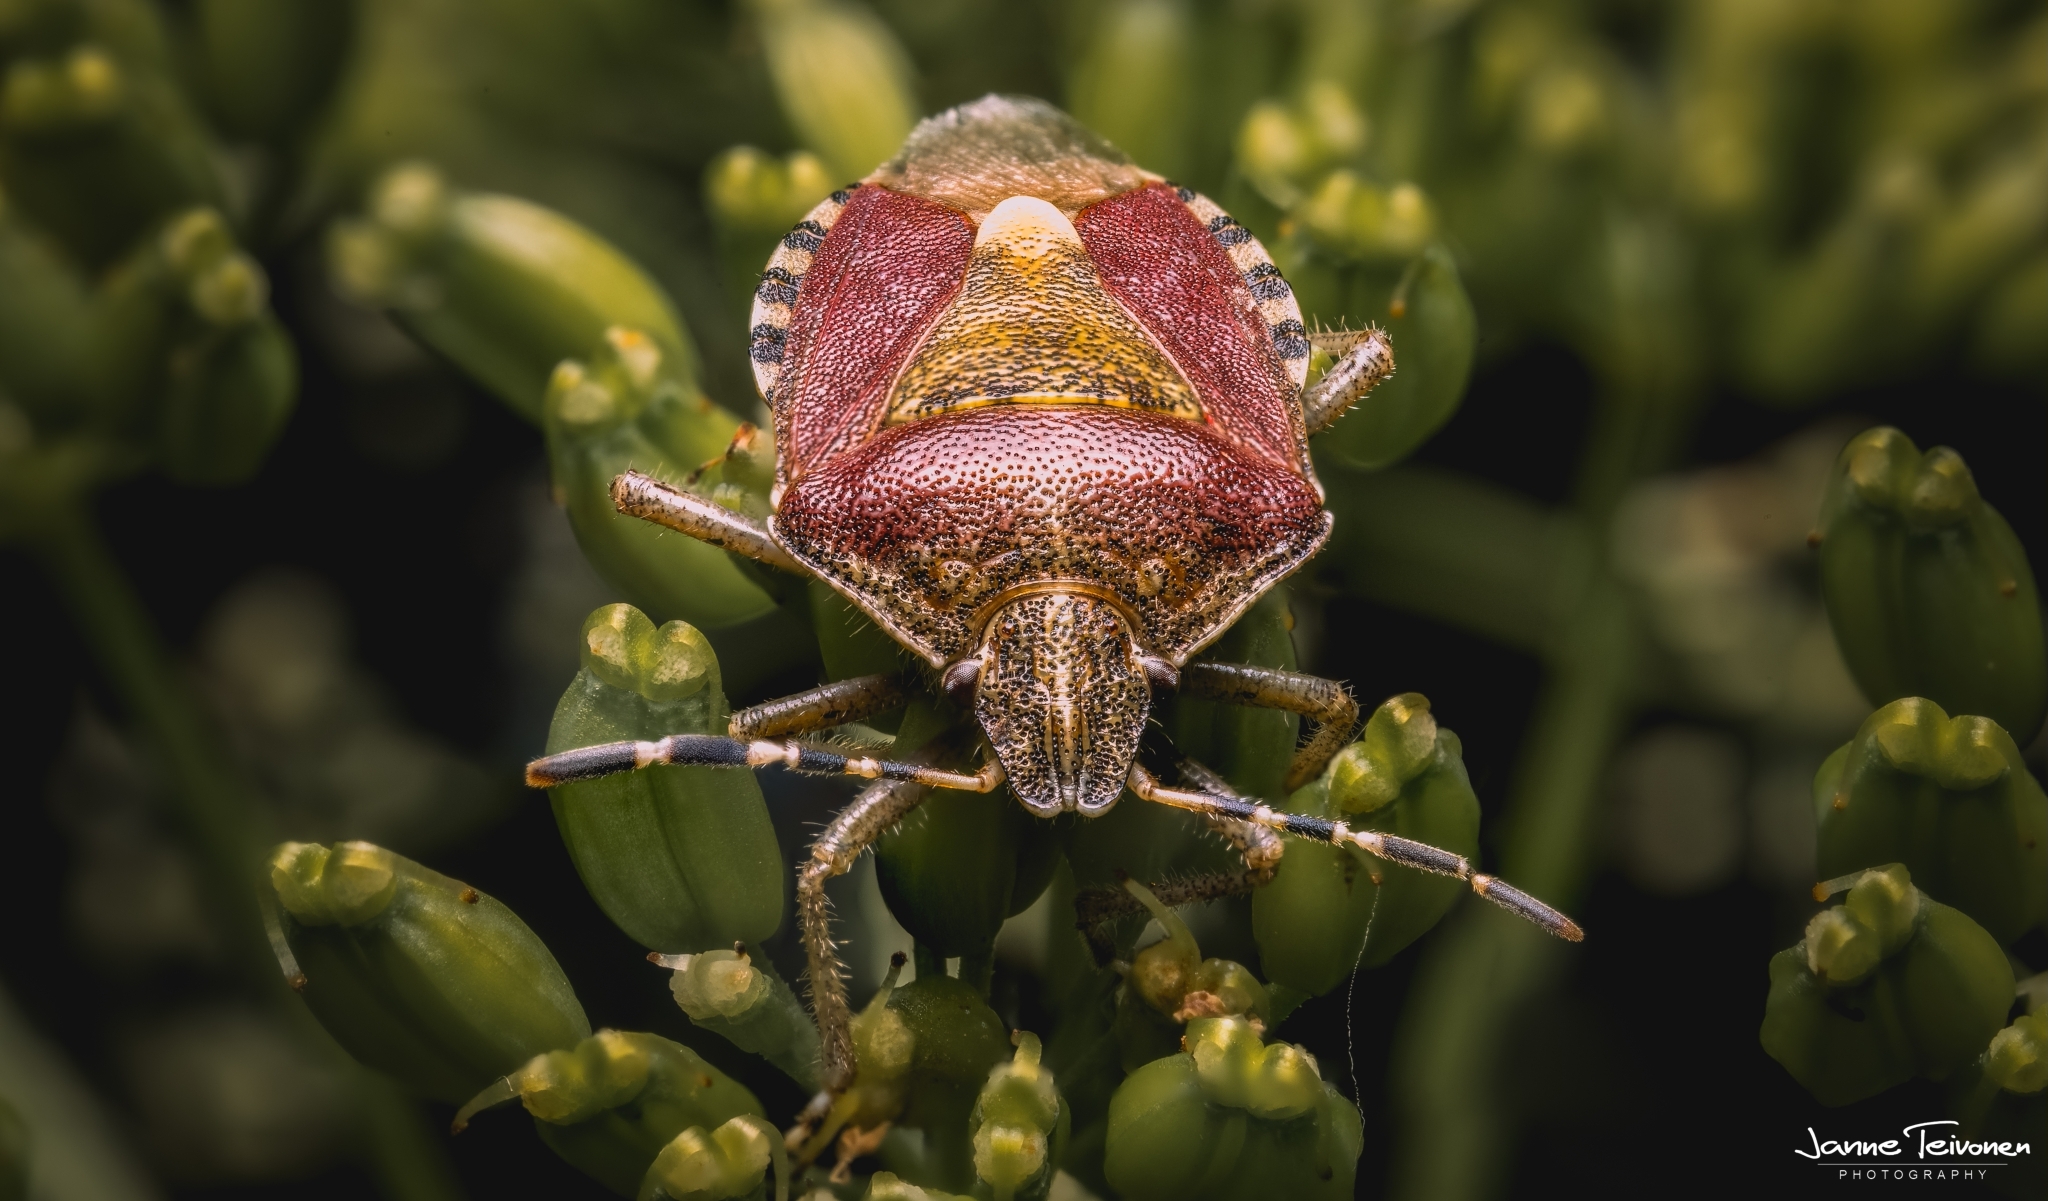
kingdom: Animalia
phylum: Arthropoda
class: Insecta
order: Hemiptera
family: Pentatomidae
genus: Dolycoris
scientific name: Dolycoris baccarum
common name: Sloe bug
